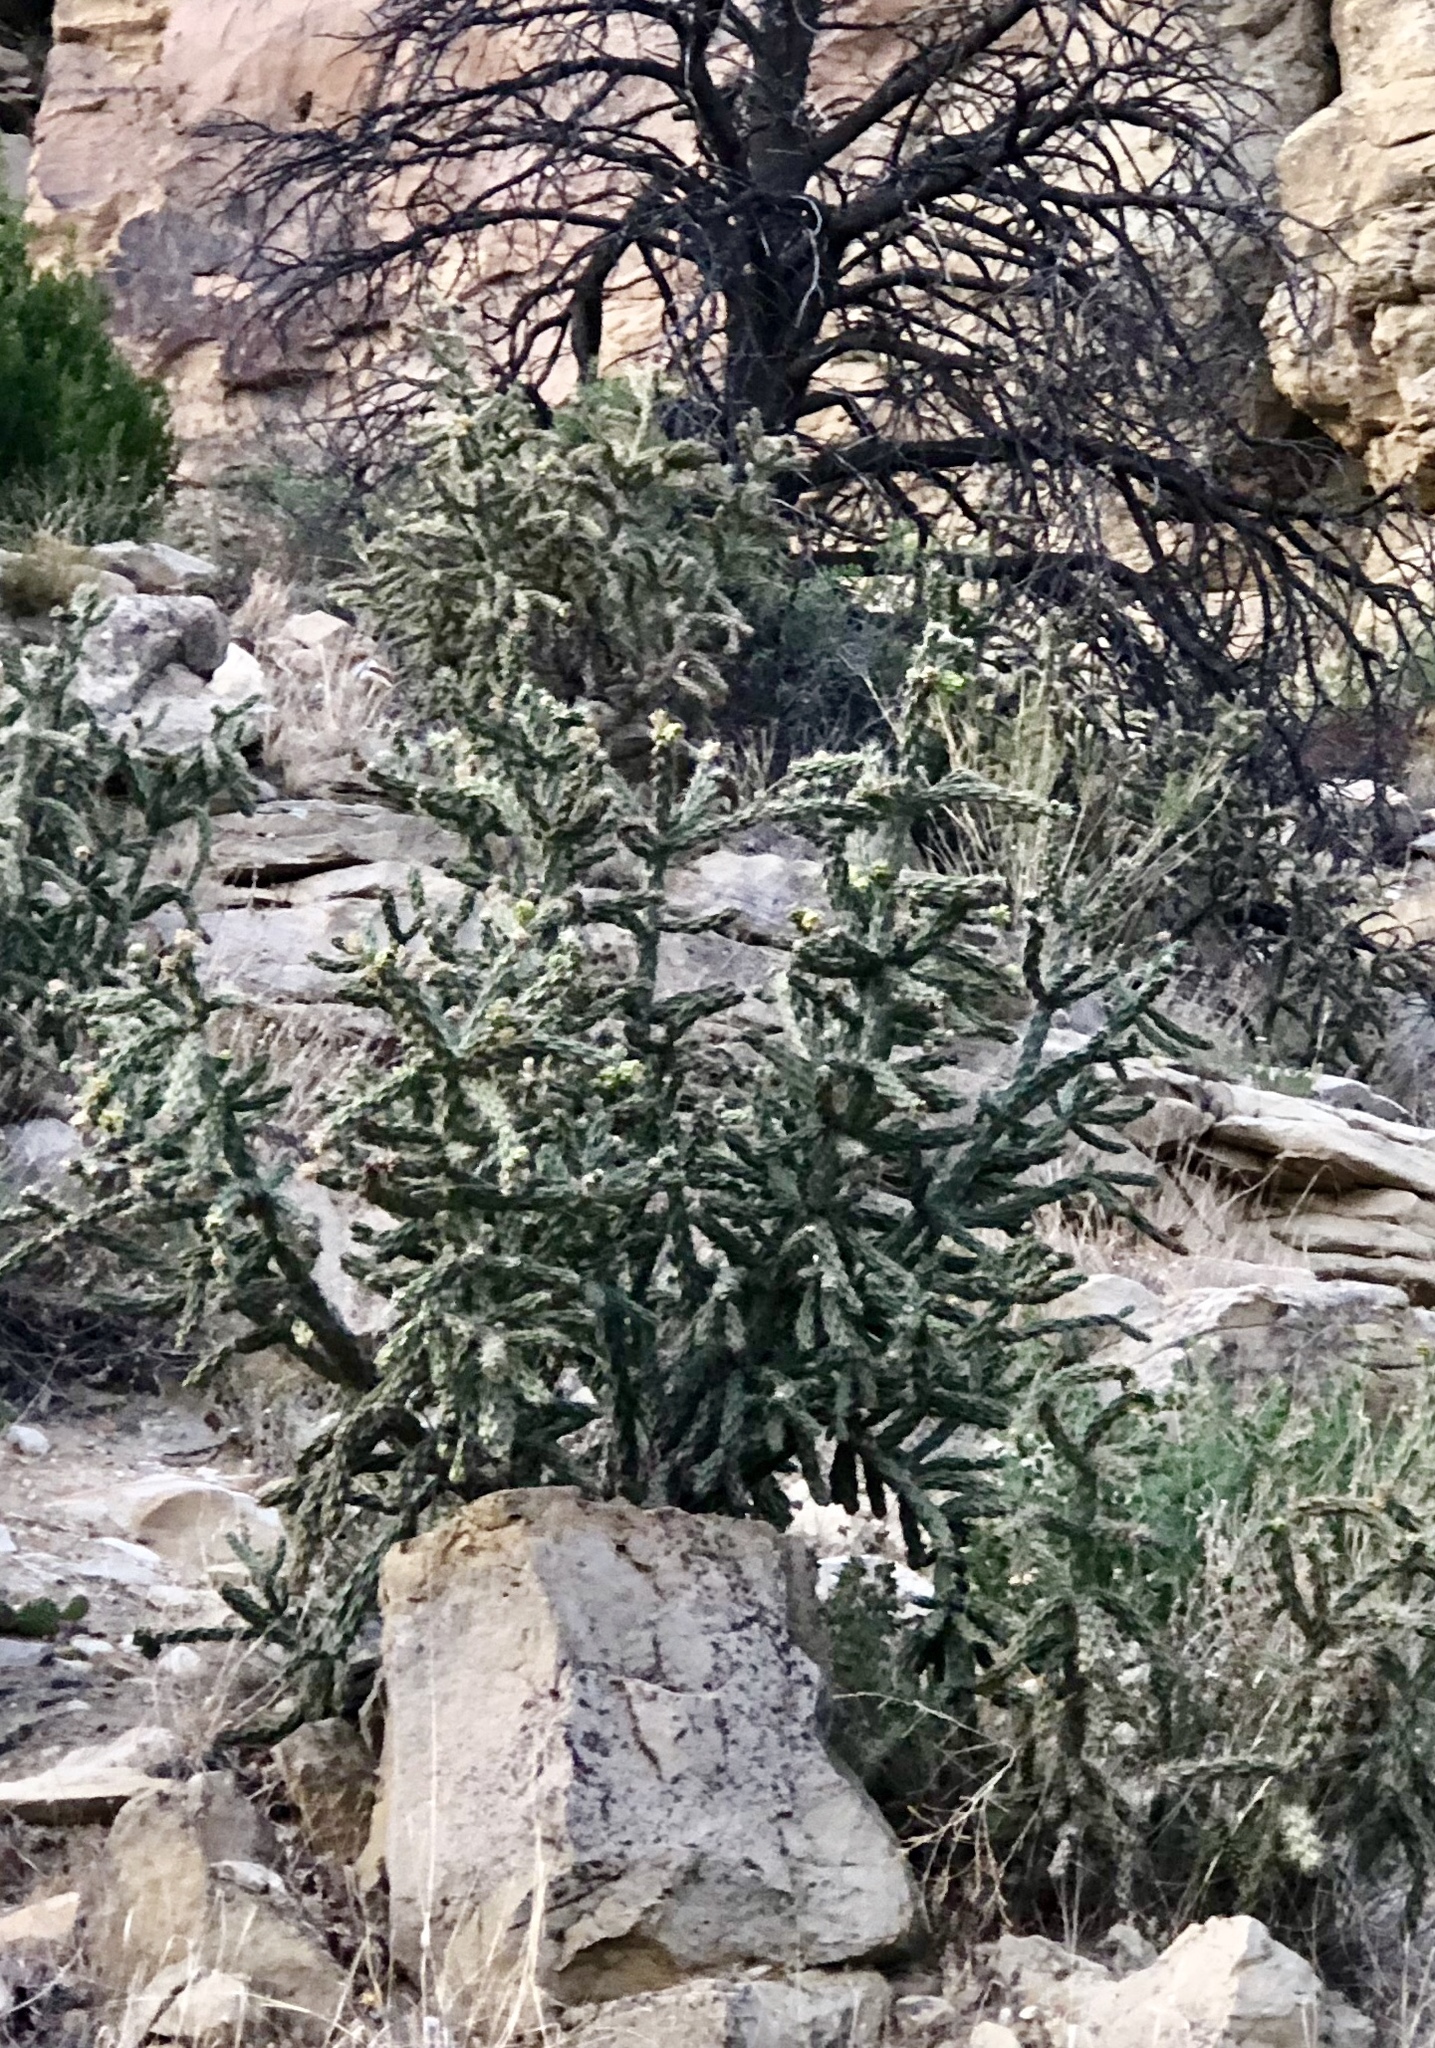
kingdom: Plantae
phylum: Tracheophyta
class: Magnoliopsida
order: Caryophyllales
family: Cactaceae
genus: Cylindropuntia
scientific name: Cylindropuntia imbricata
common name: Candelabrum cactus
